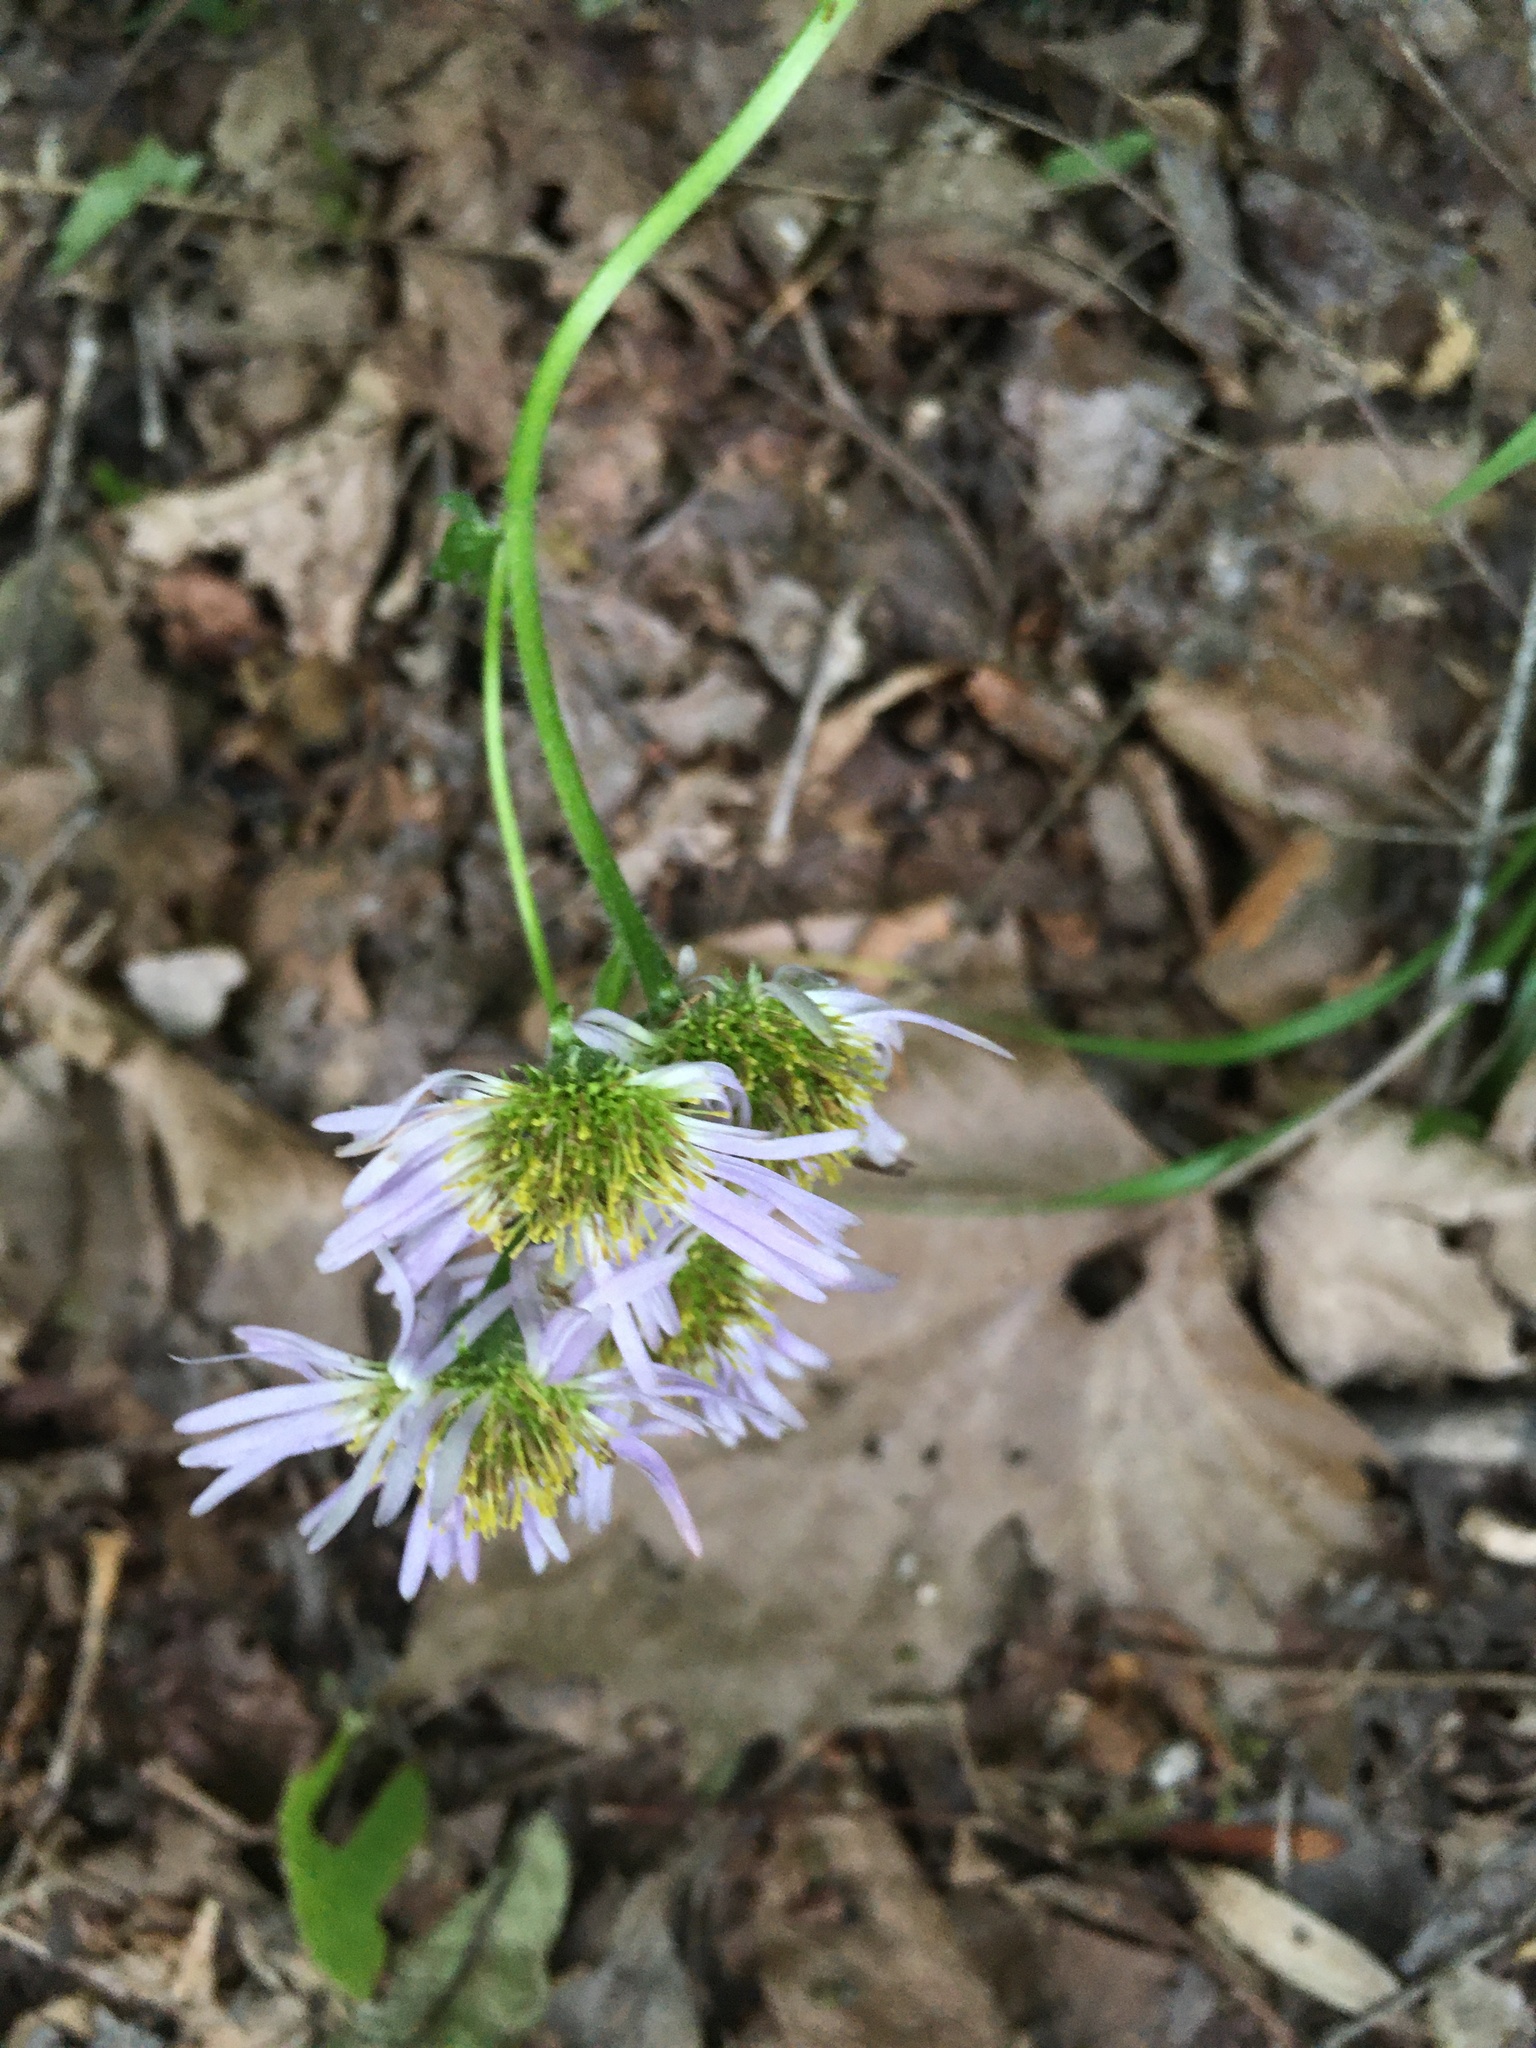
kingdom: Plantae
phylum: Tracheophyta
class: Magnoliopsida
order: Asterales
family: Asteraceae
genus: Erigeron
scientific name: Erigeron pulchellus
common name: Hairy fleabane
